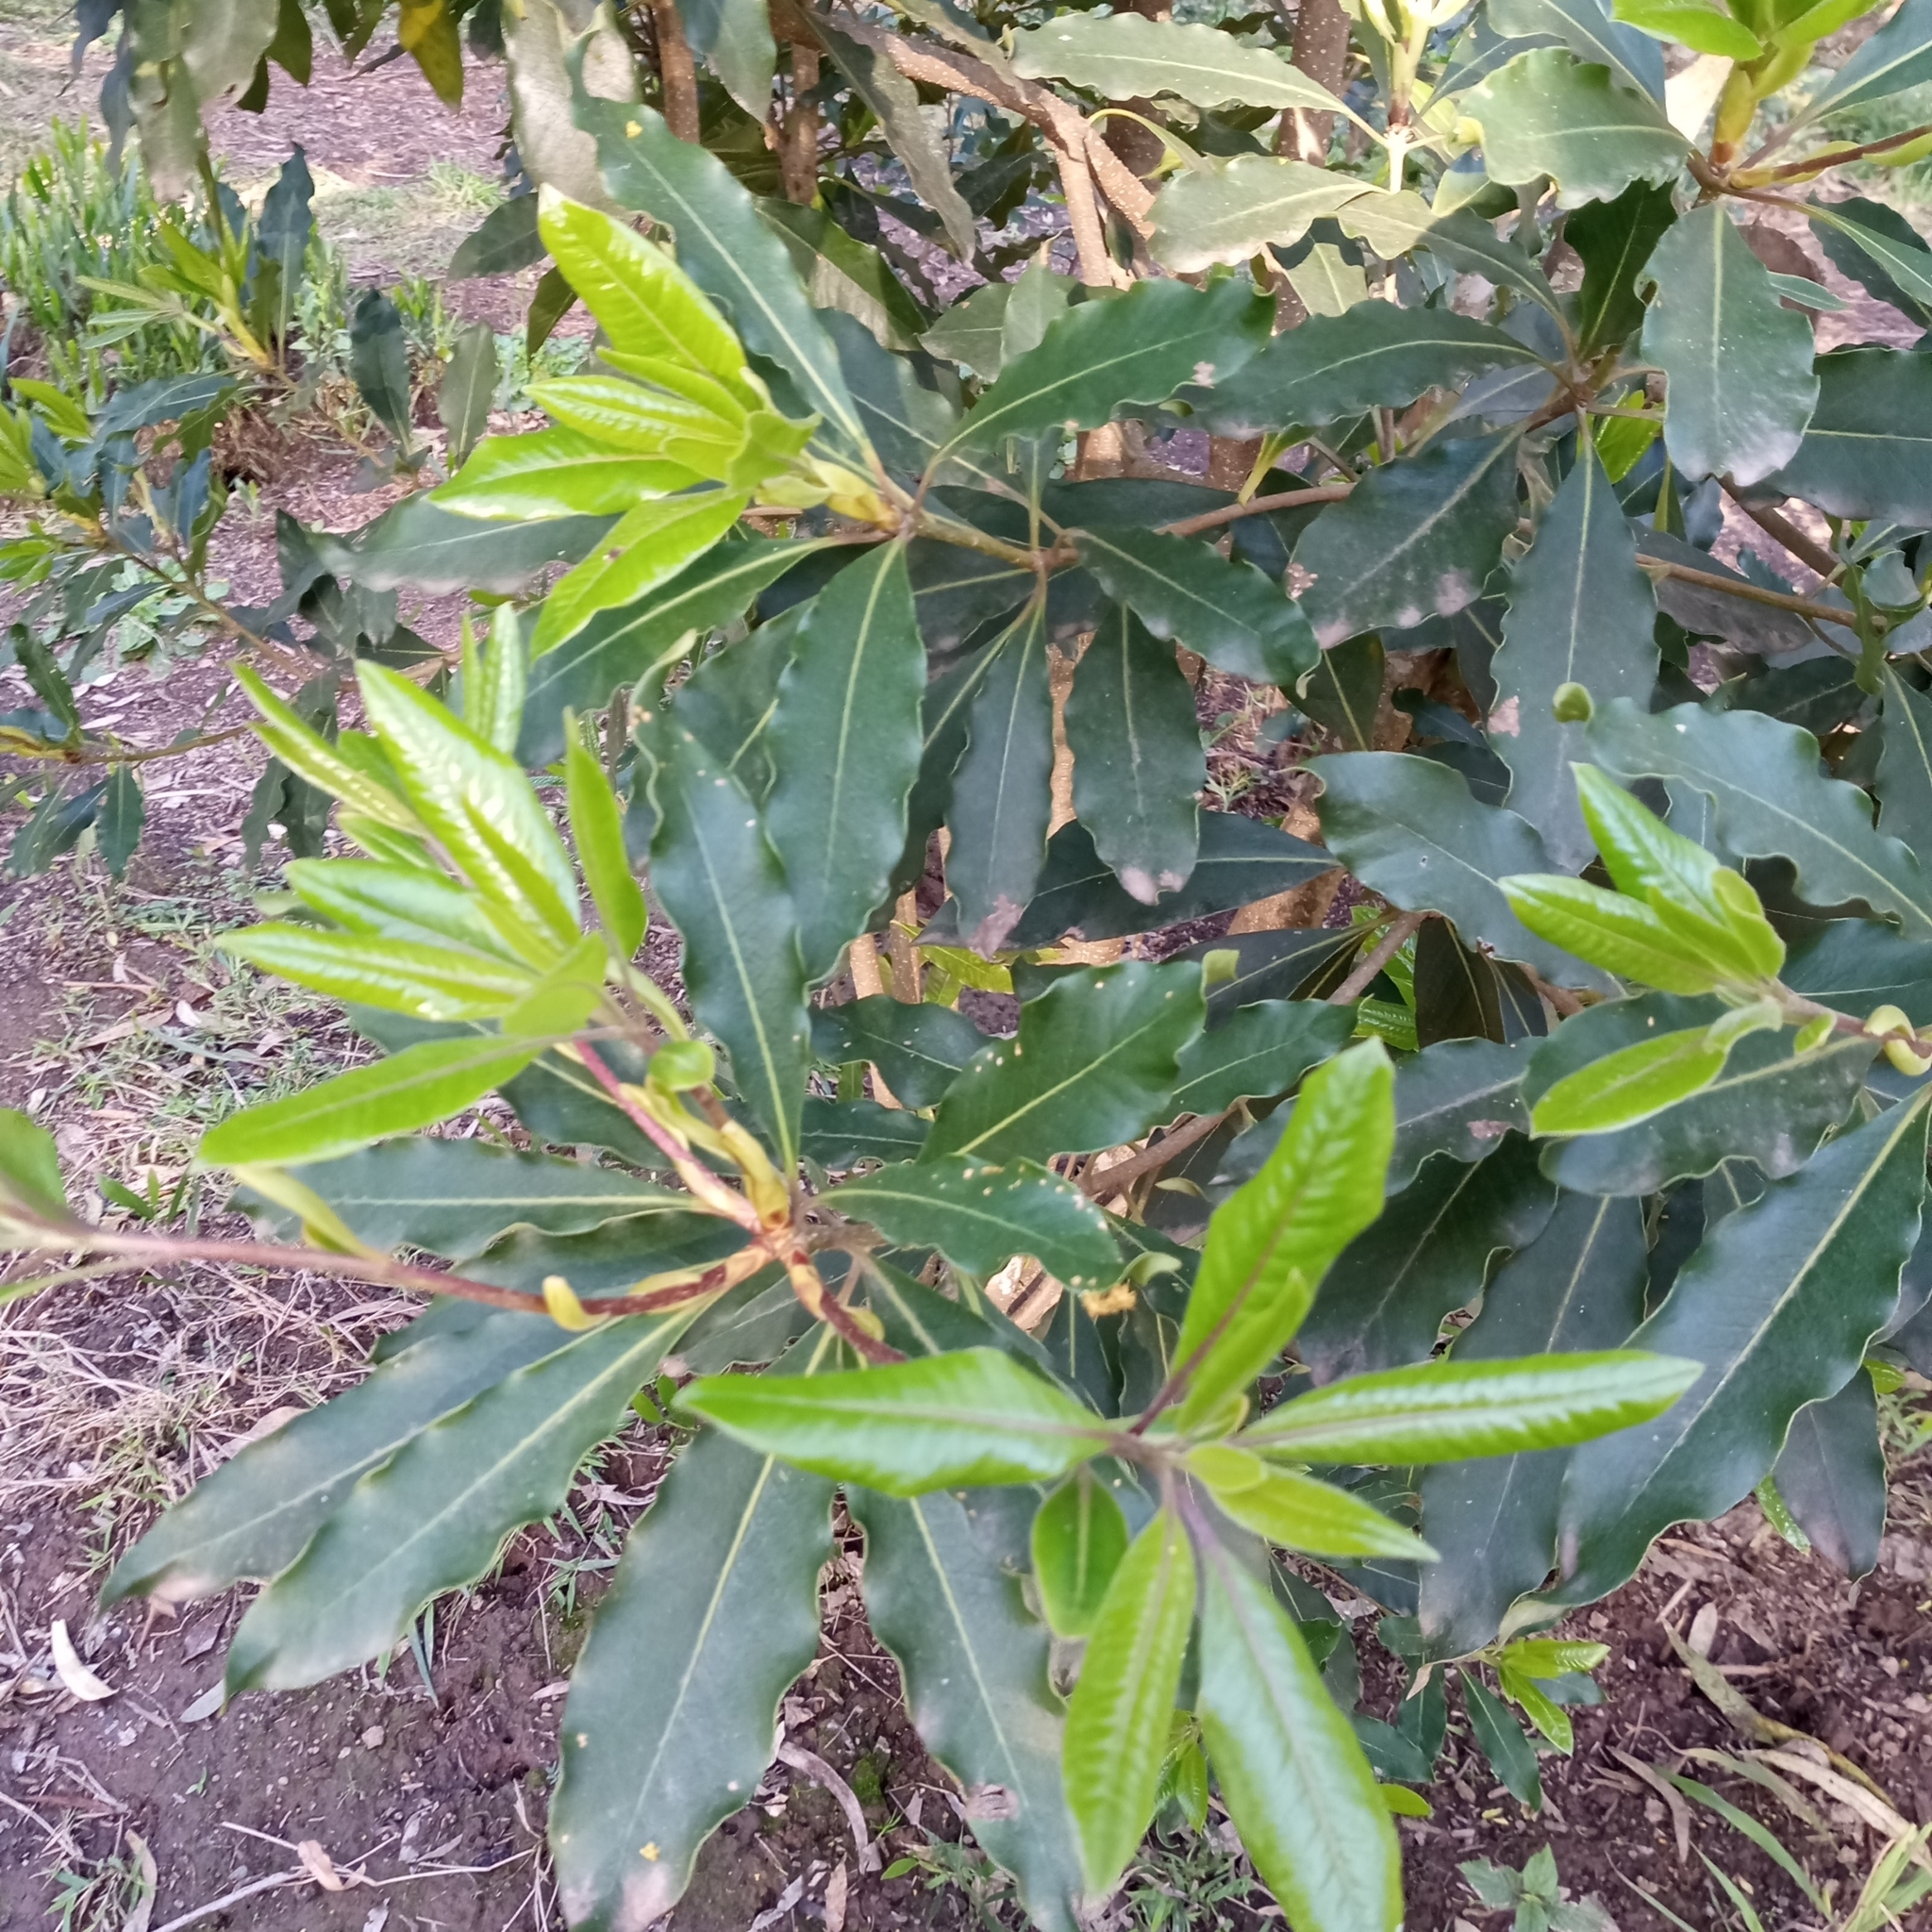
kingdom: Plantae
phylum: Tracheophyta
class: Magnoliopsida
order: Apiales
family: Pittosporaceae
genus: Pittosporum
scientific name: Pittosporum undulatum
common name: Australian cheesewood
